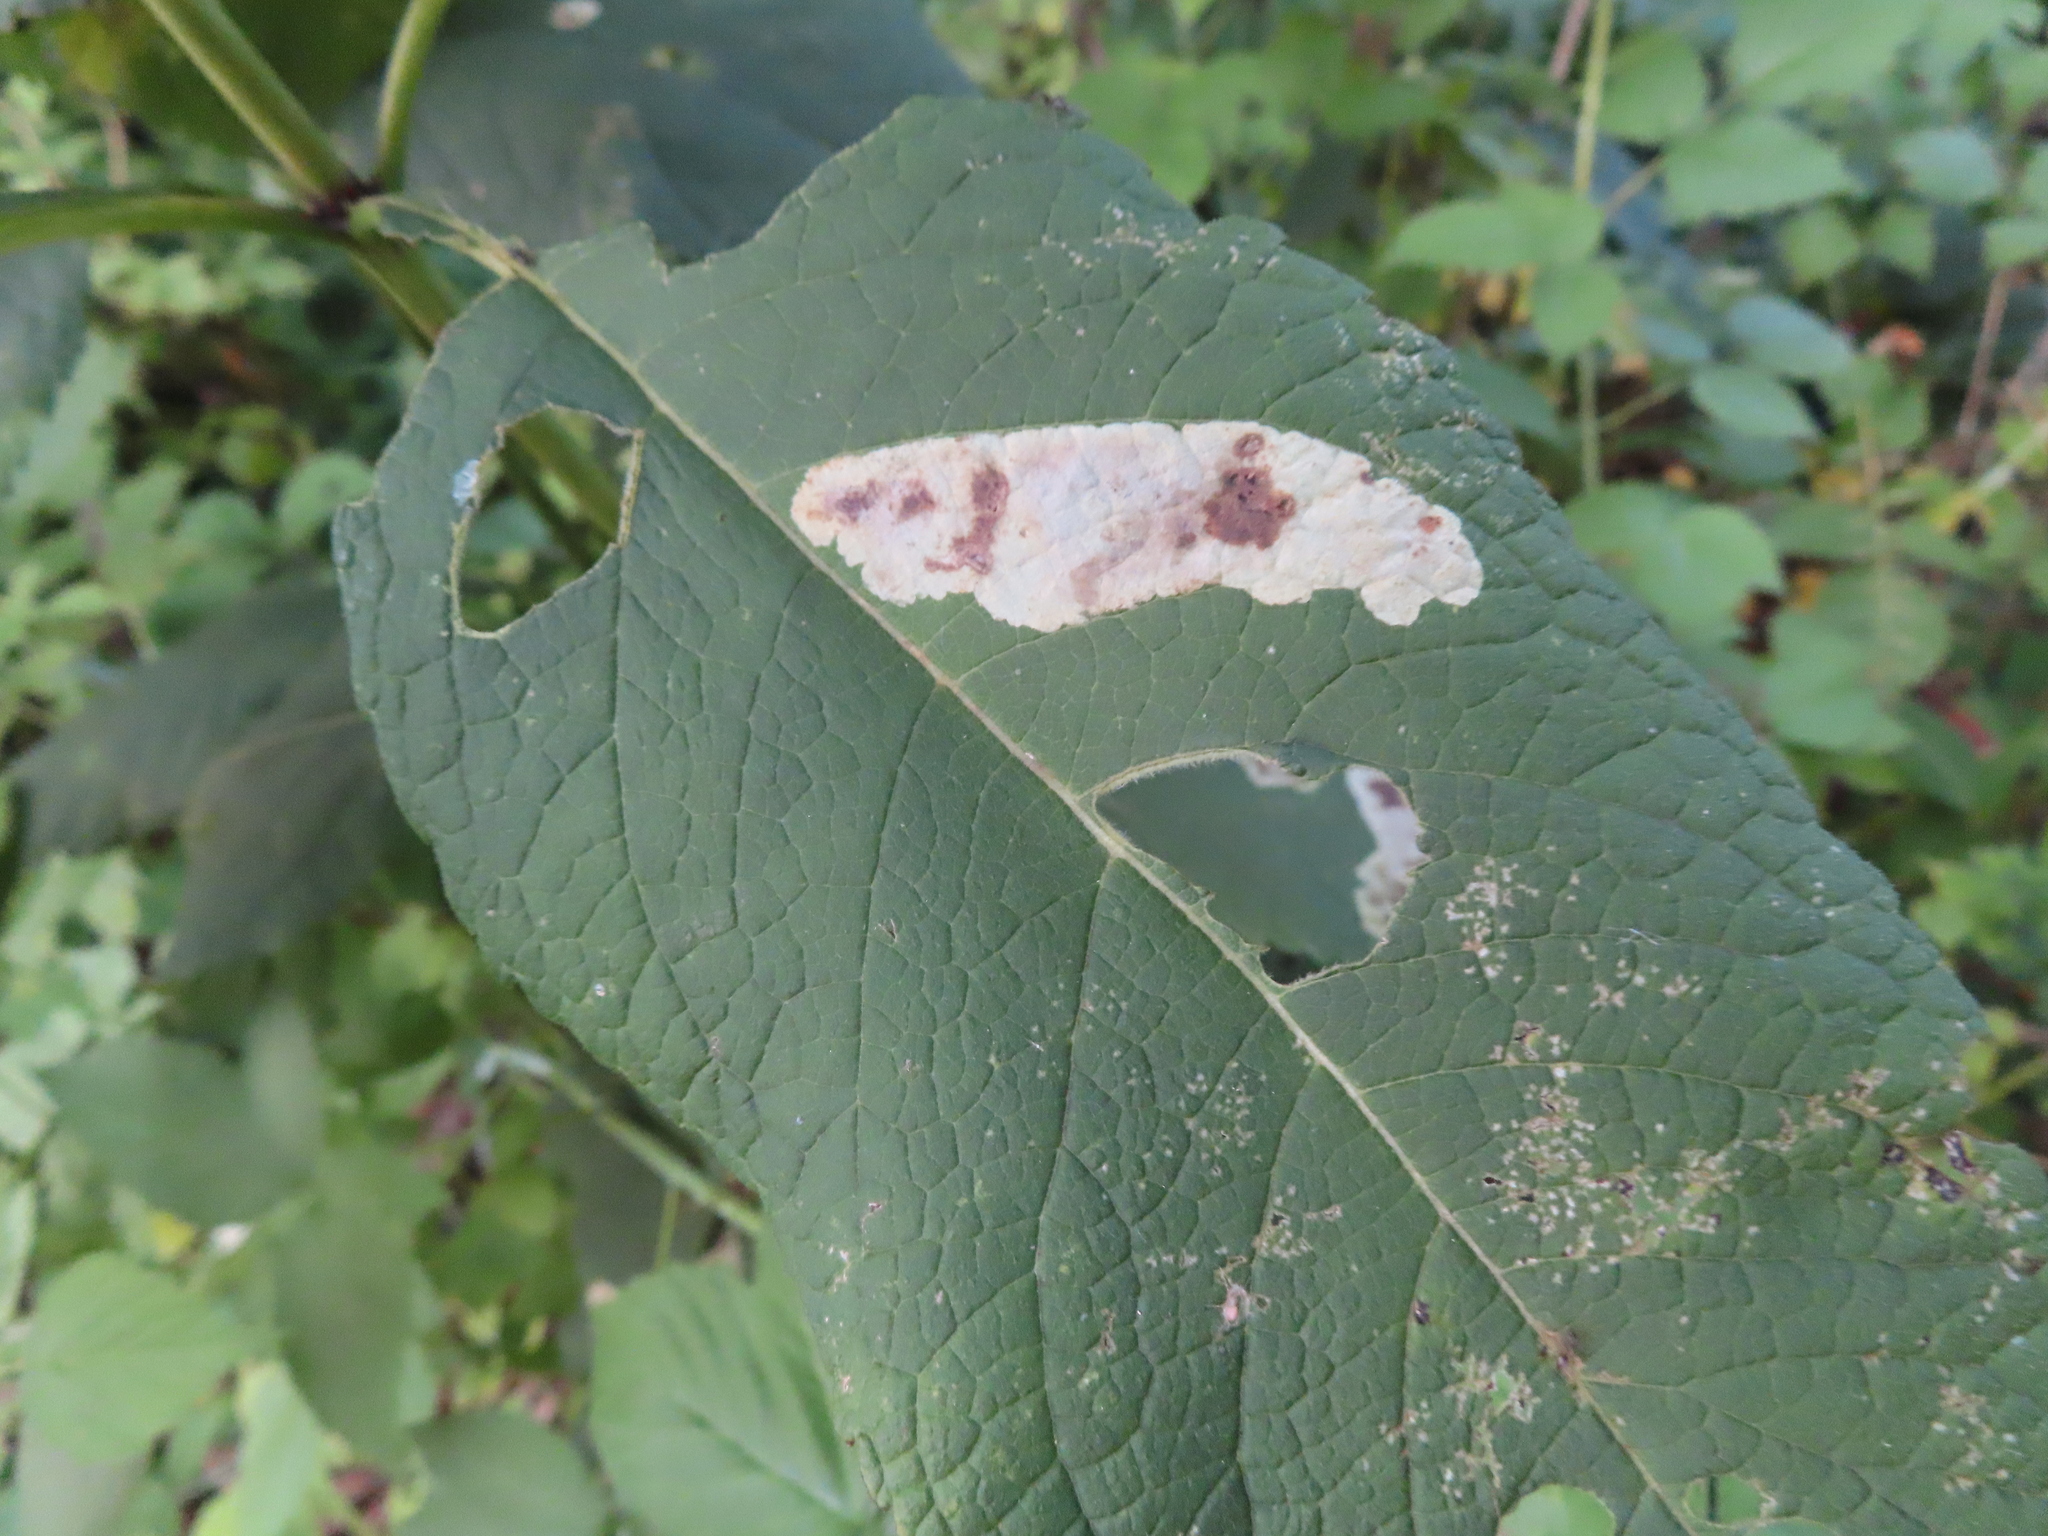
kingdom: Plantae
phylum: Tracheophyta
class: Magnoliopsida
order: Asterales
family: Asteraceae
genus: Eutrochium
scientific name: Eutrochium purpureum
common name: Gravelroot
